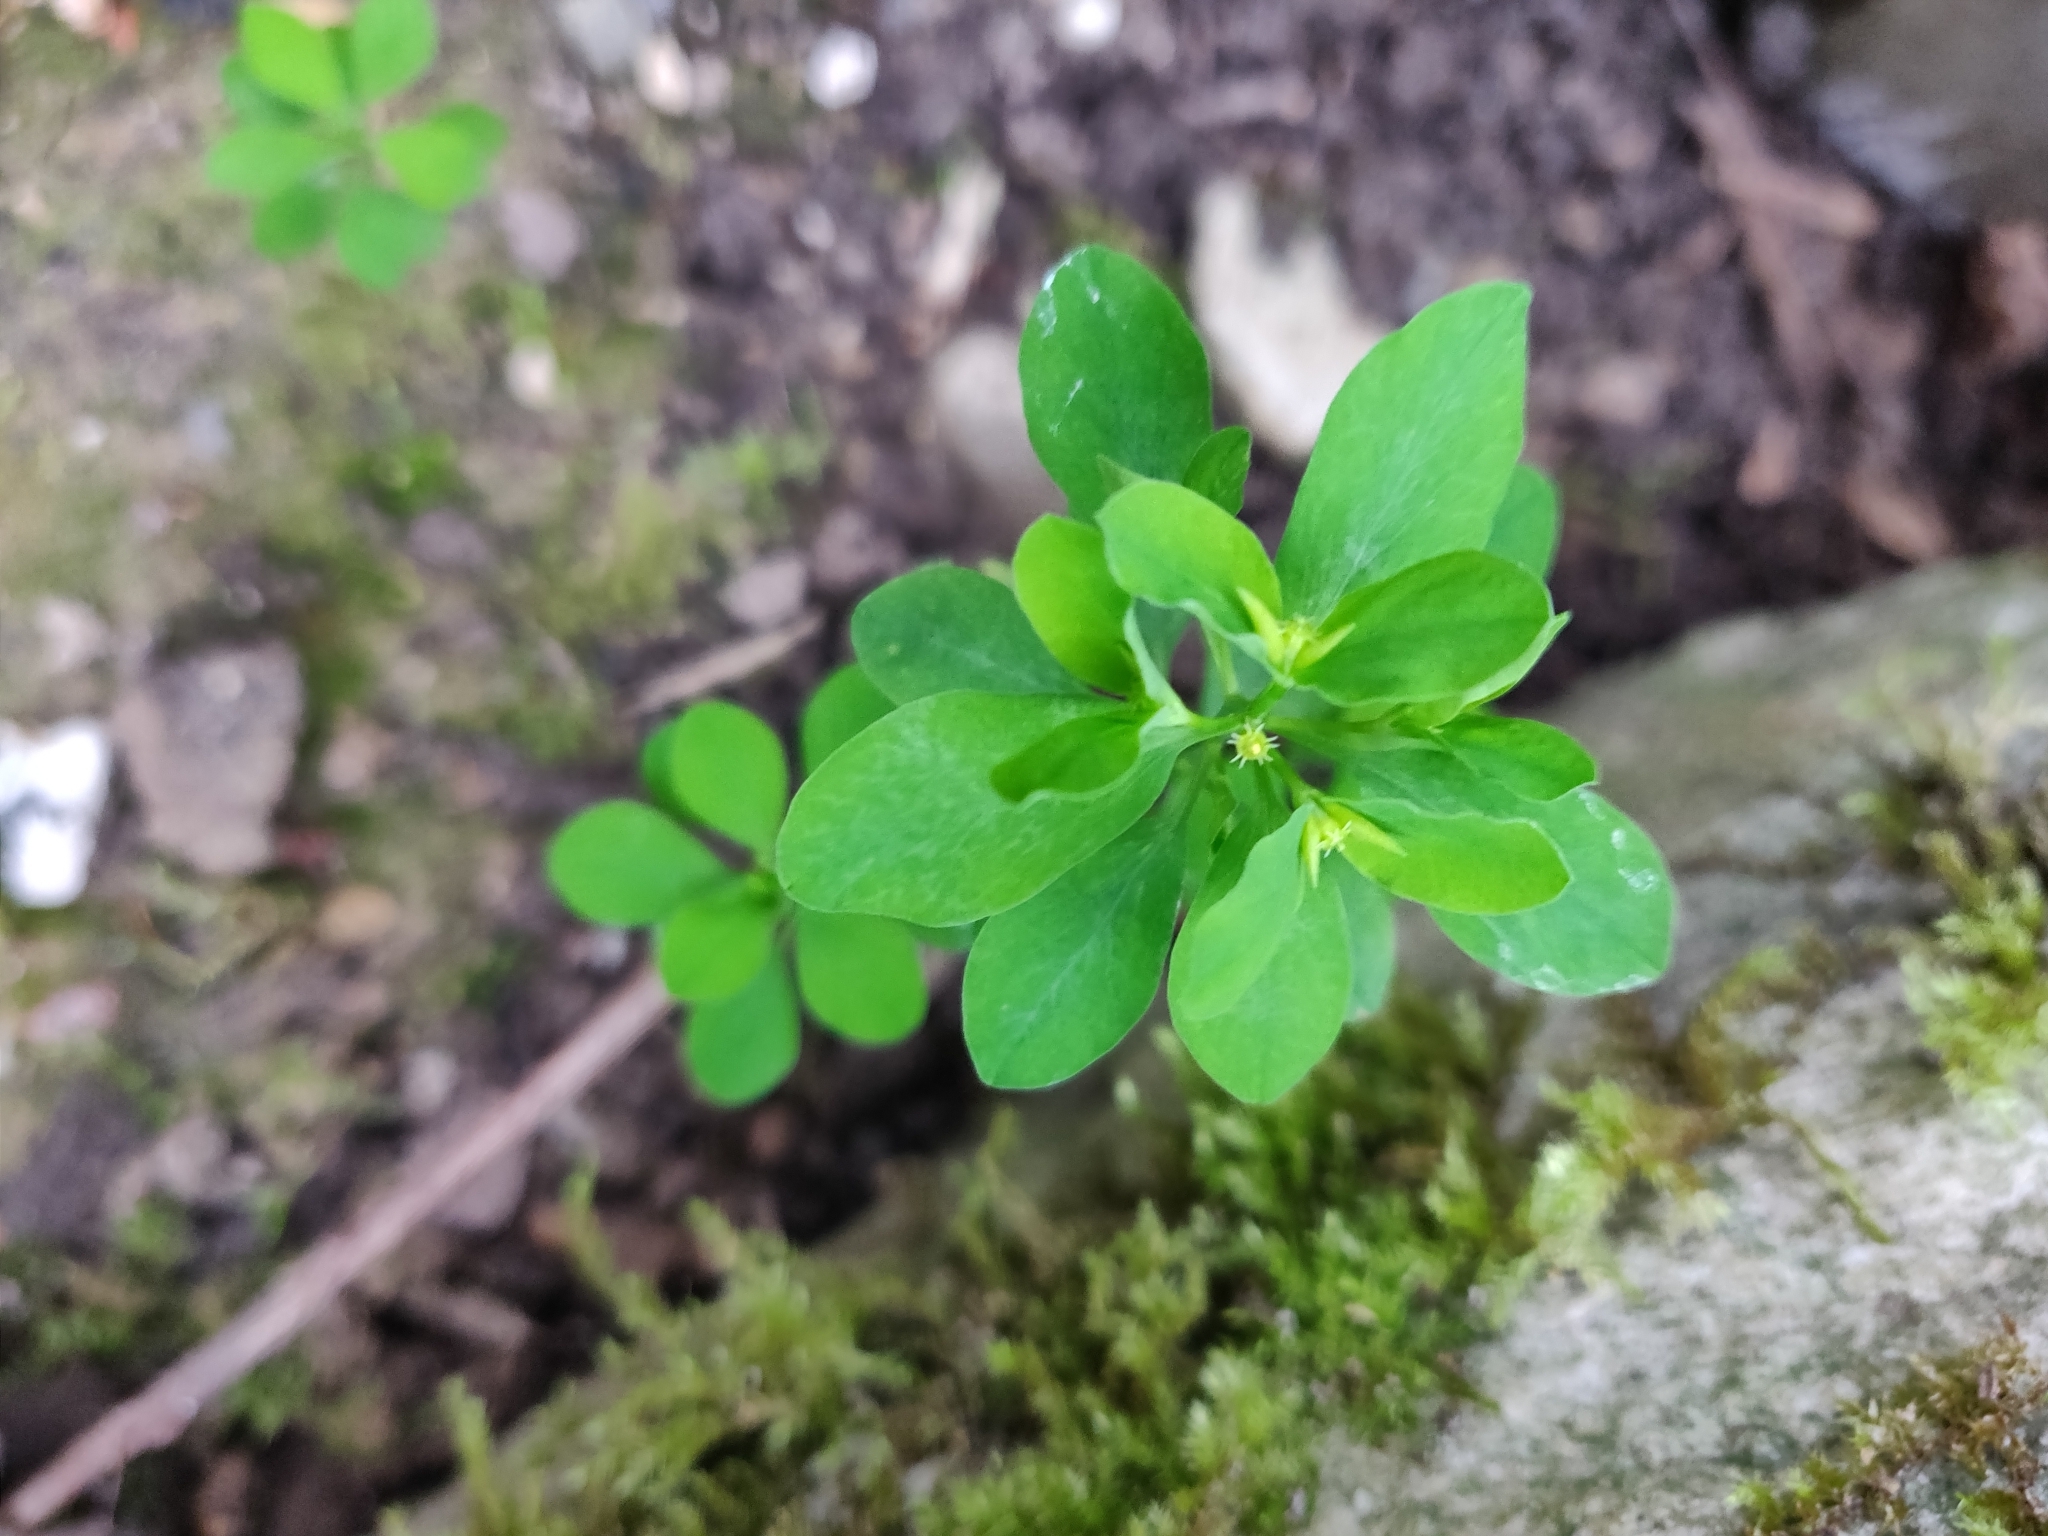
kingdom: Plantae
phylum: Tracheophyta
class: Magnoliopsida
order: Malpighiales
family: Euphorbiaceae
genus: Euphorbia
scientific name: Euphorbia peplus
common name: Petty spurge
